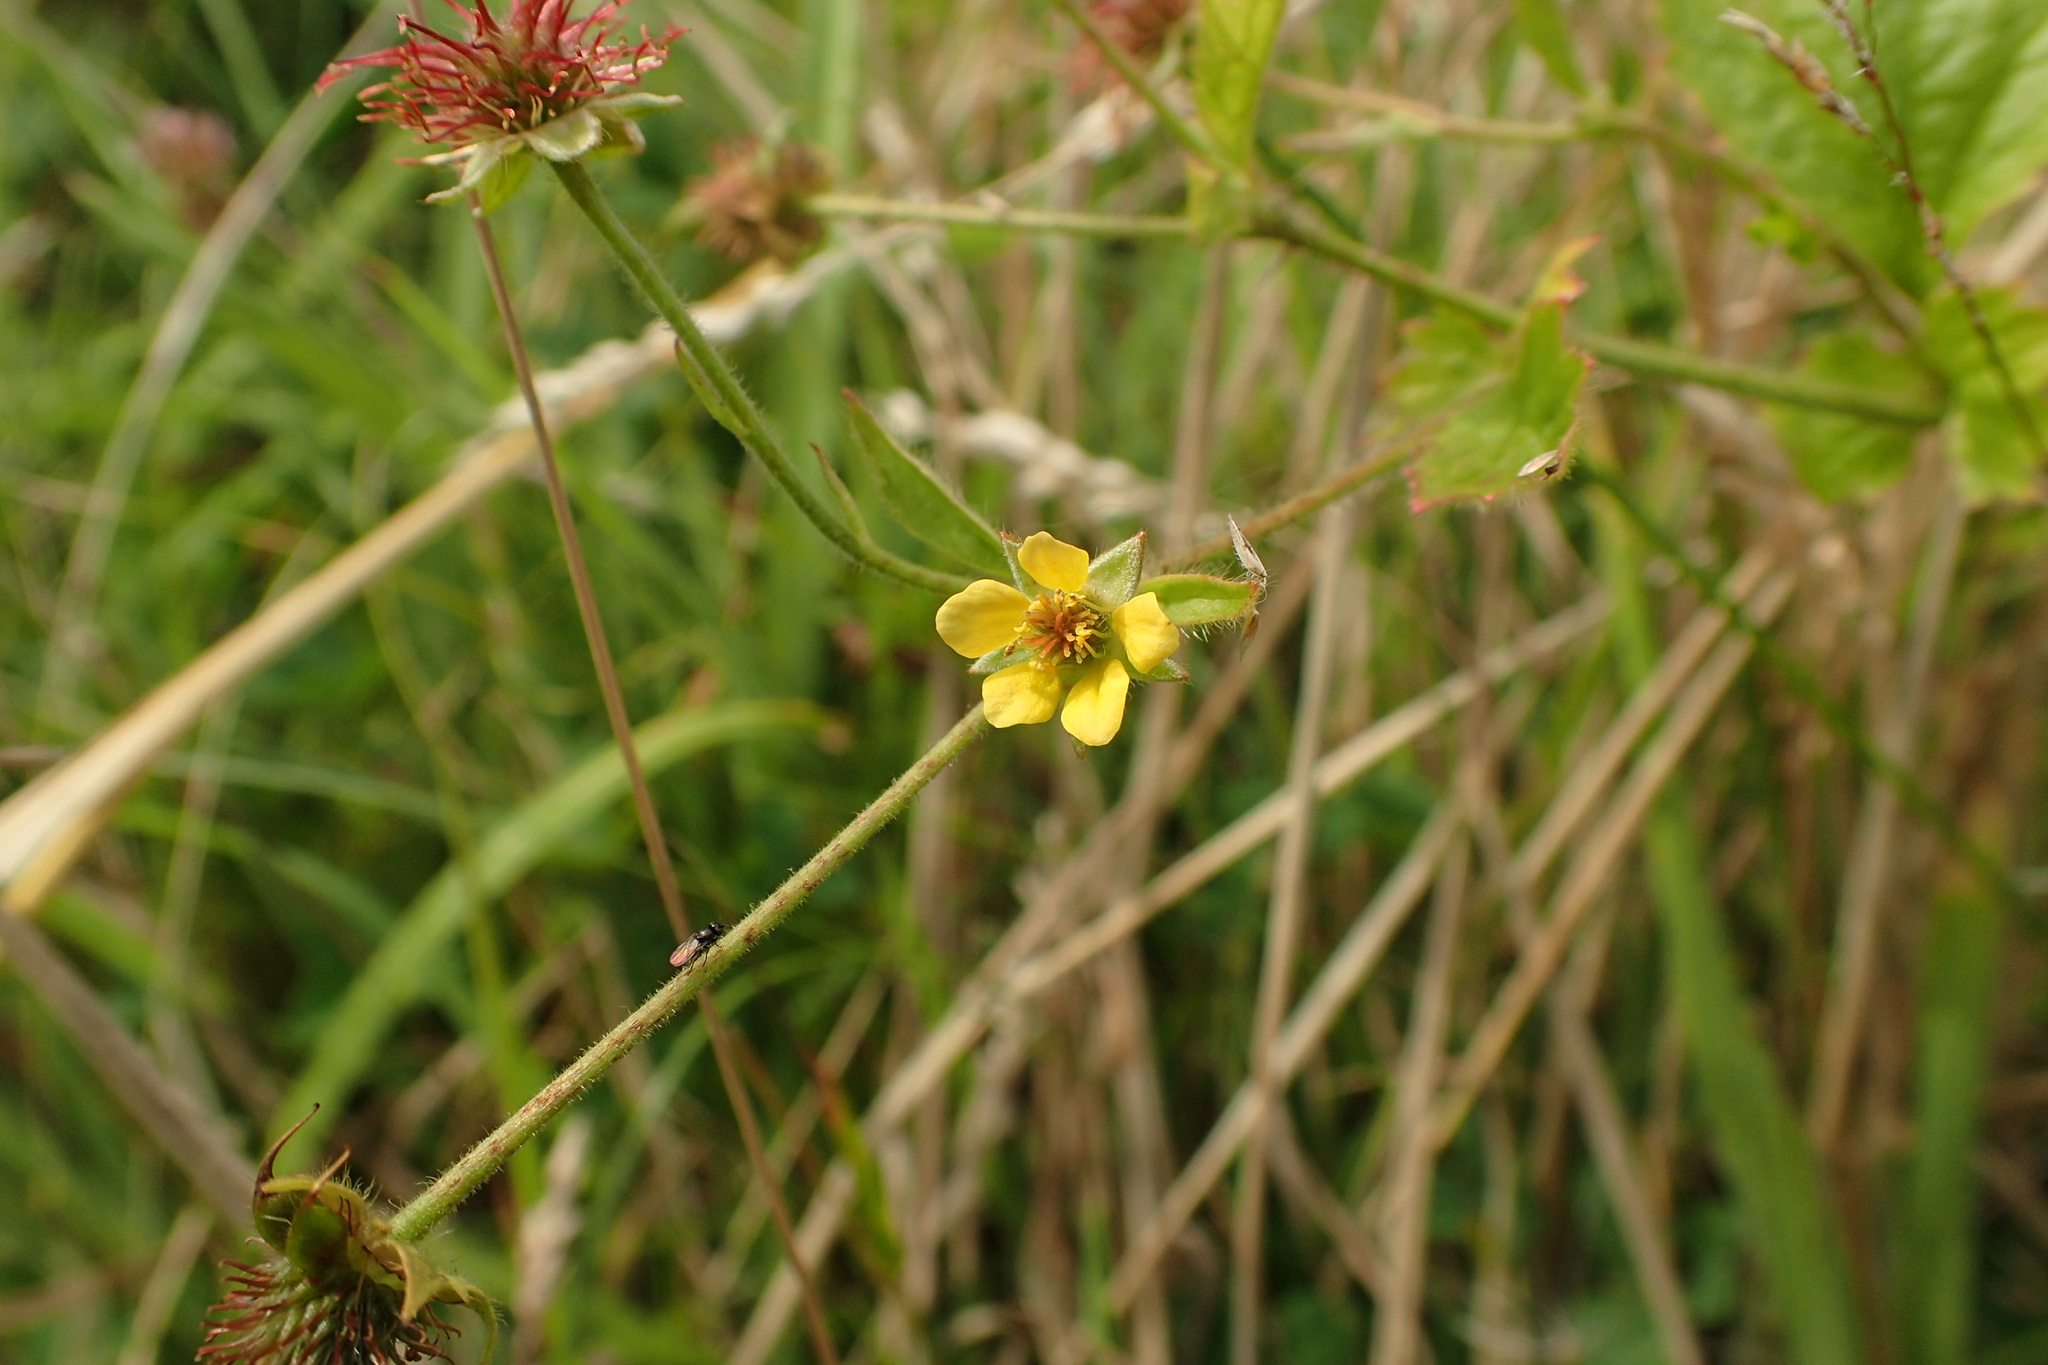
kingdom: Plantae
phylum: Tracheophyta
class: Magnoliopsida
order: Rosales
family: Rosaceae
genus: Geum
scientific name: Geum urbanum
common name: Wood avens
